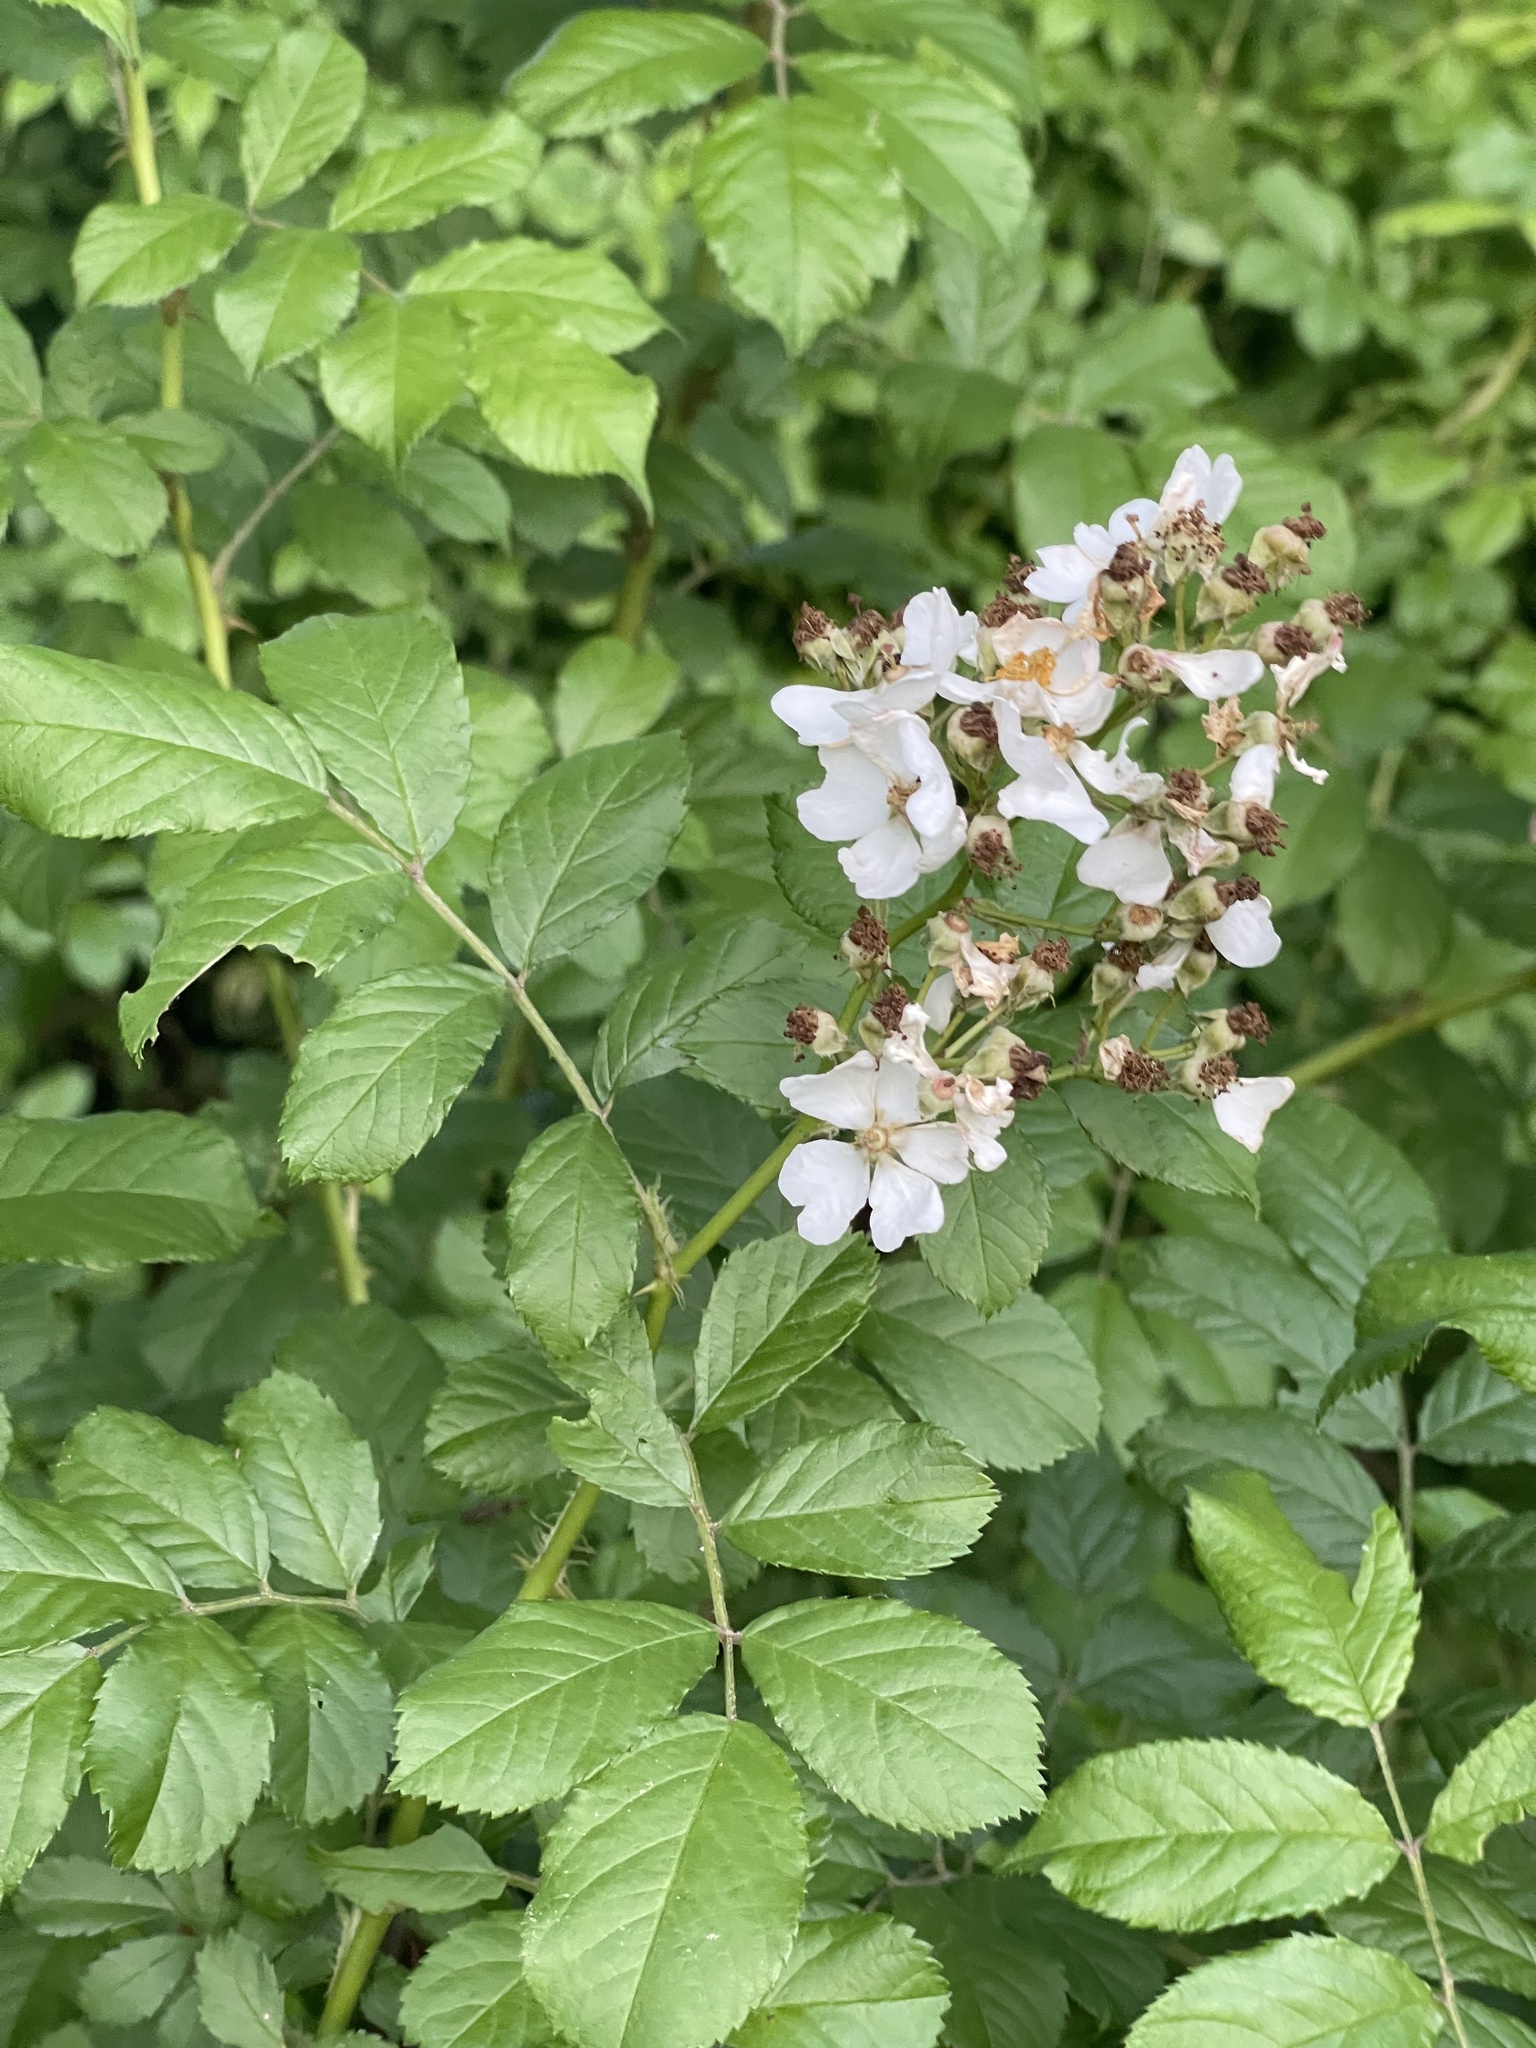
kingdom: Plantae
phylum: Tracheophyta
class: Magnoliopsida
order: Rosales
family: Rosaceae
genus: Rosa
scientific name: Rosa multiflora
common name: Multiflora rose
